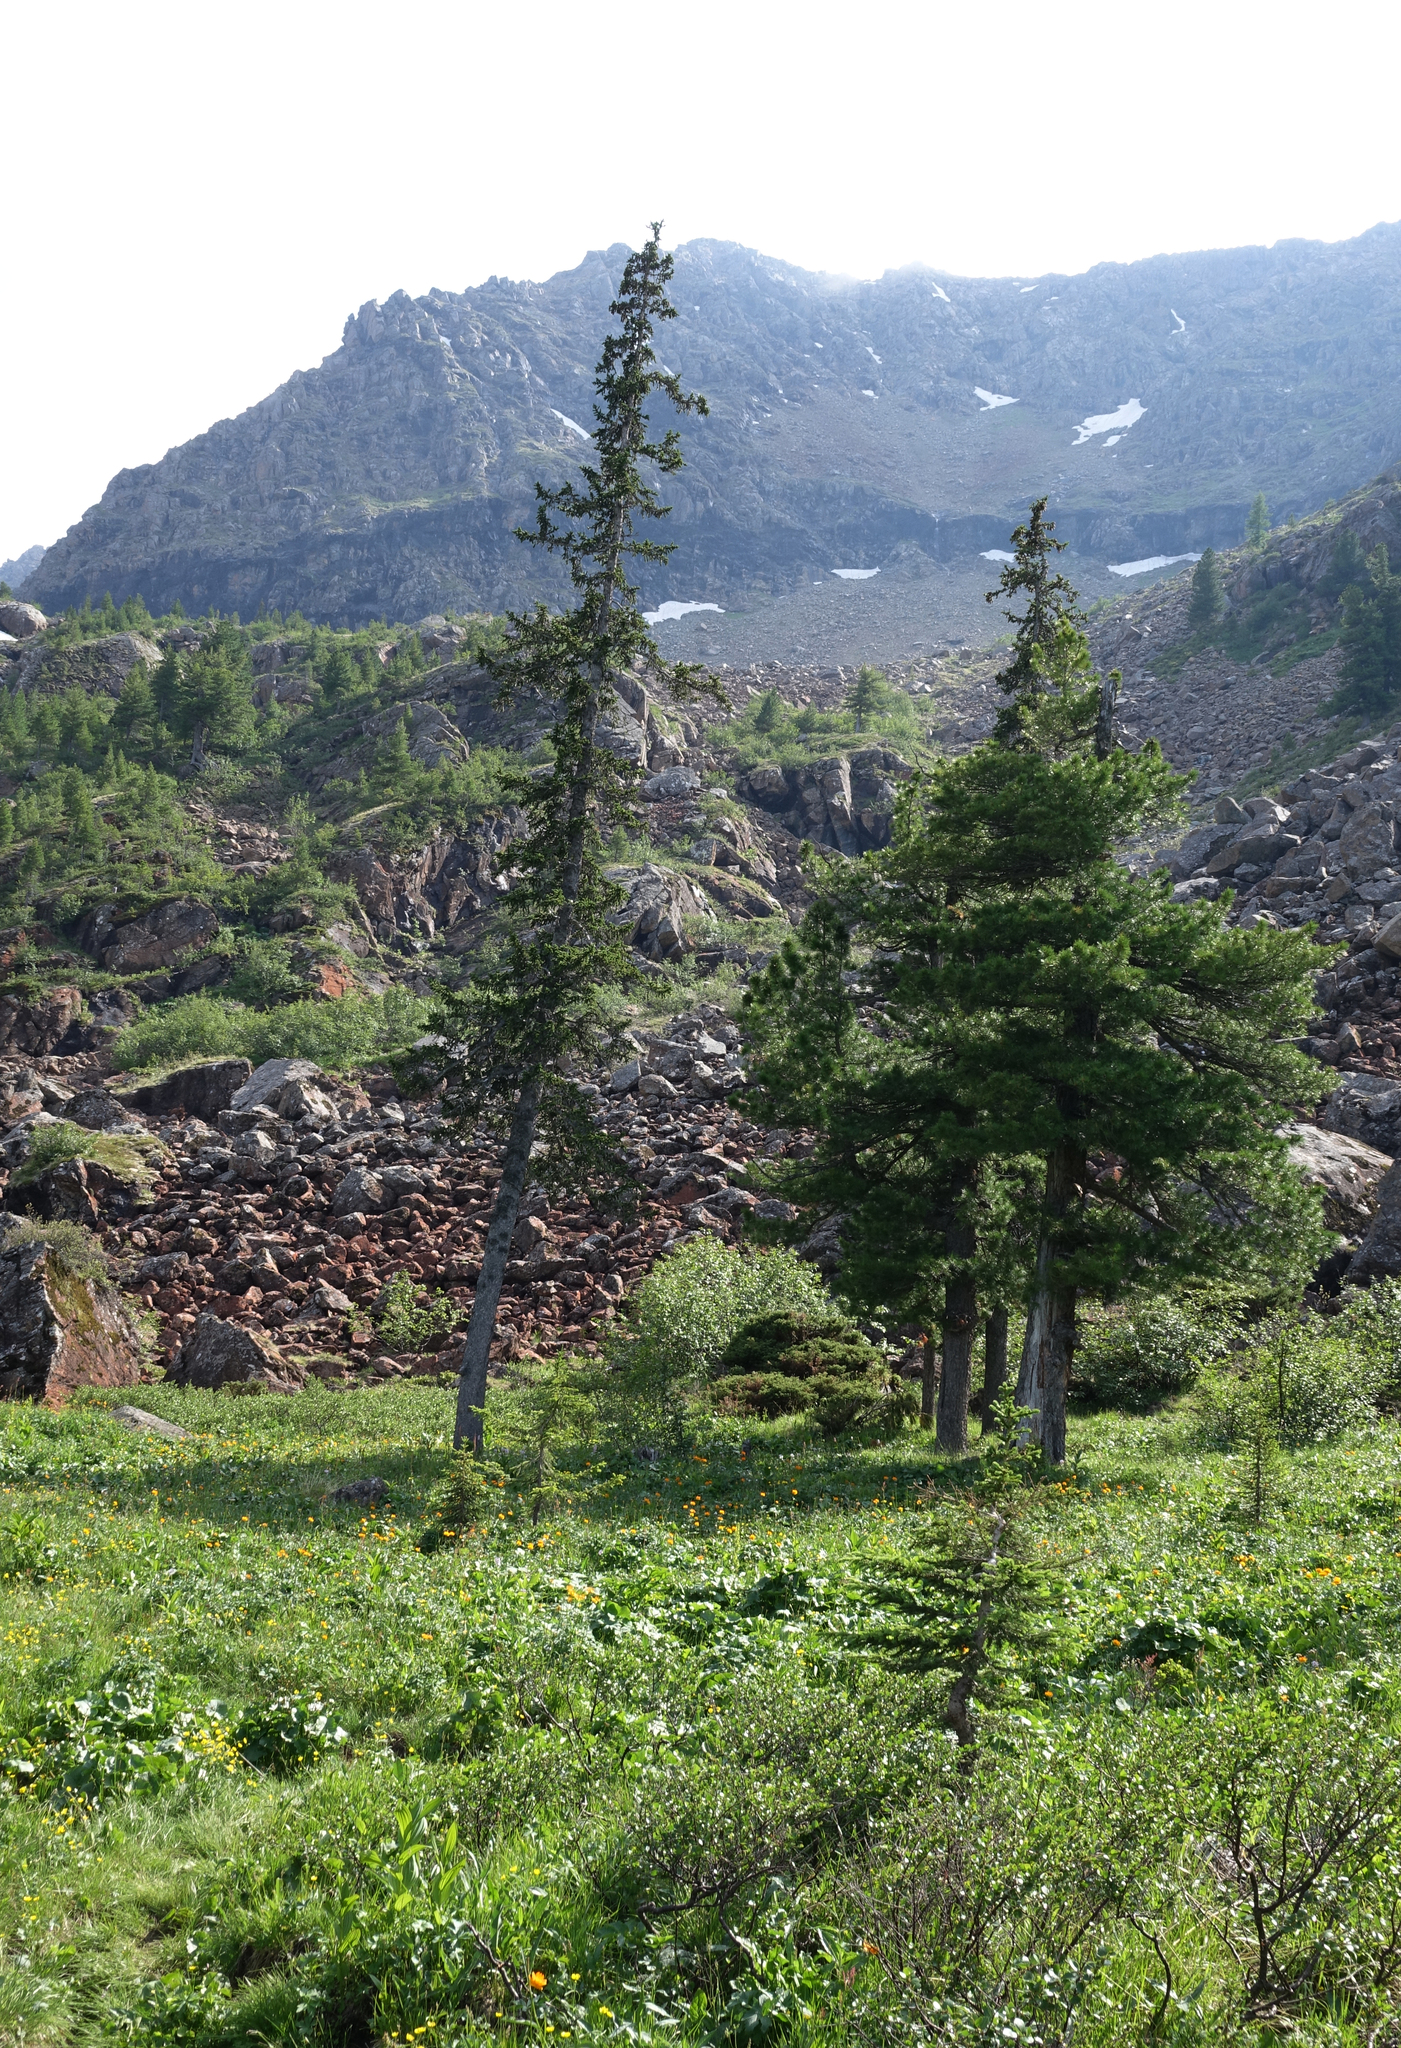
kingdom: Plantae
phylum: Tracheophyta
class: Pinopsida
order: Pinales
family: Pinaceae
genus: Pinus
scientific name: Pinus sibirica
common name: Siberian pine
